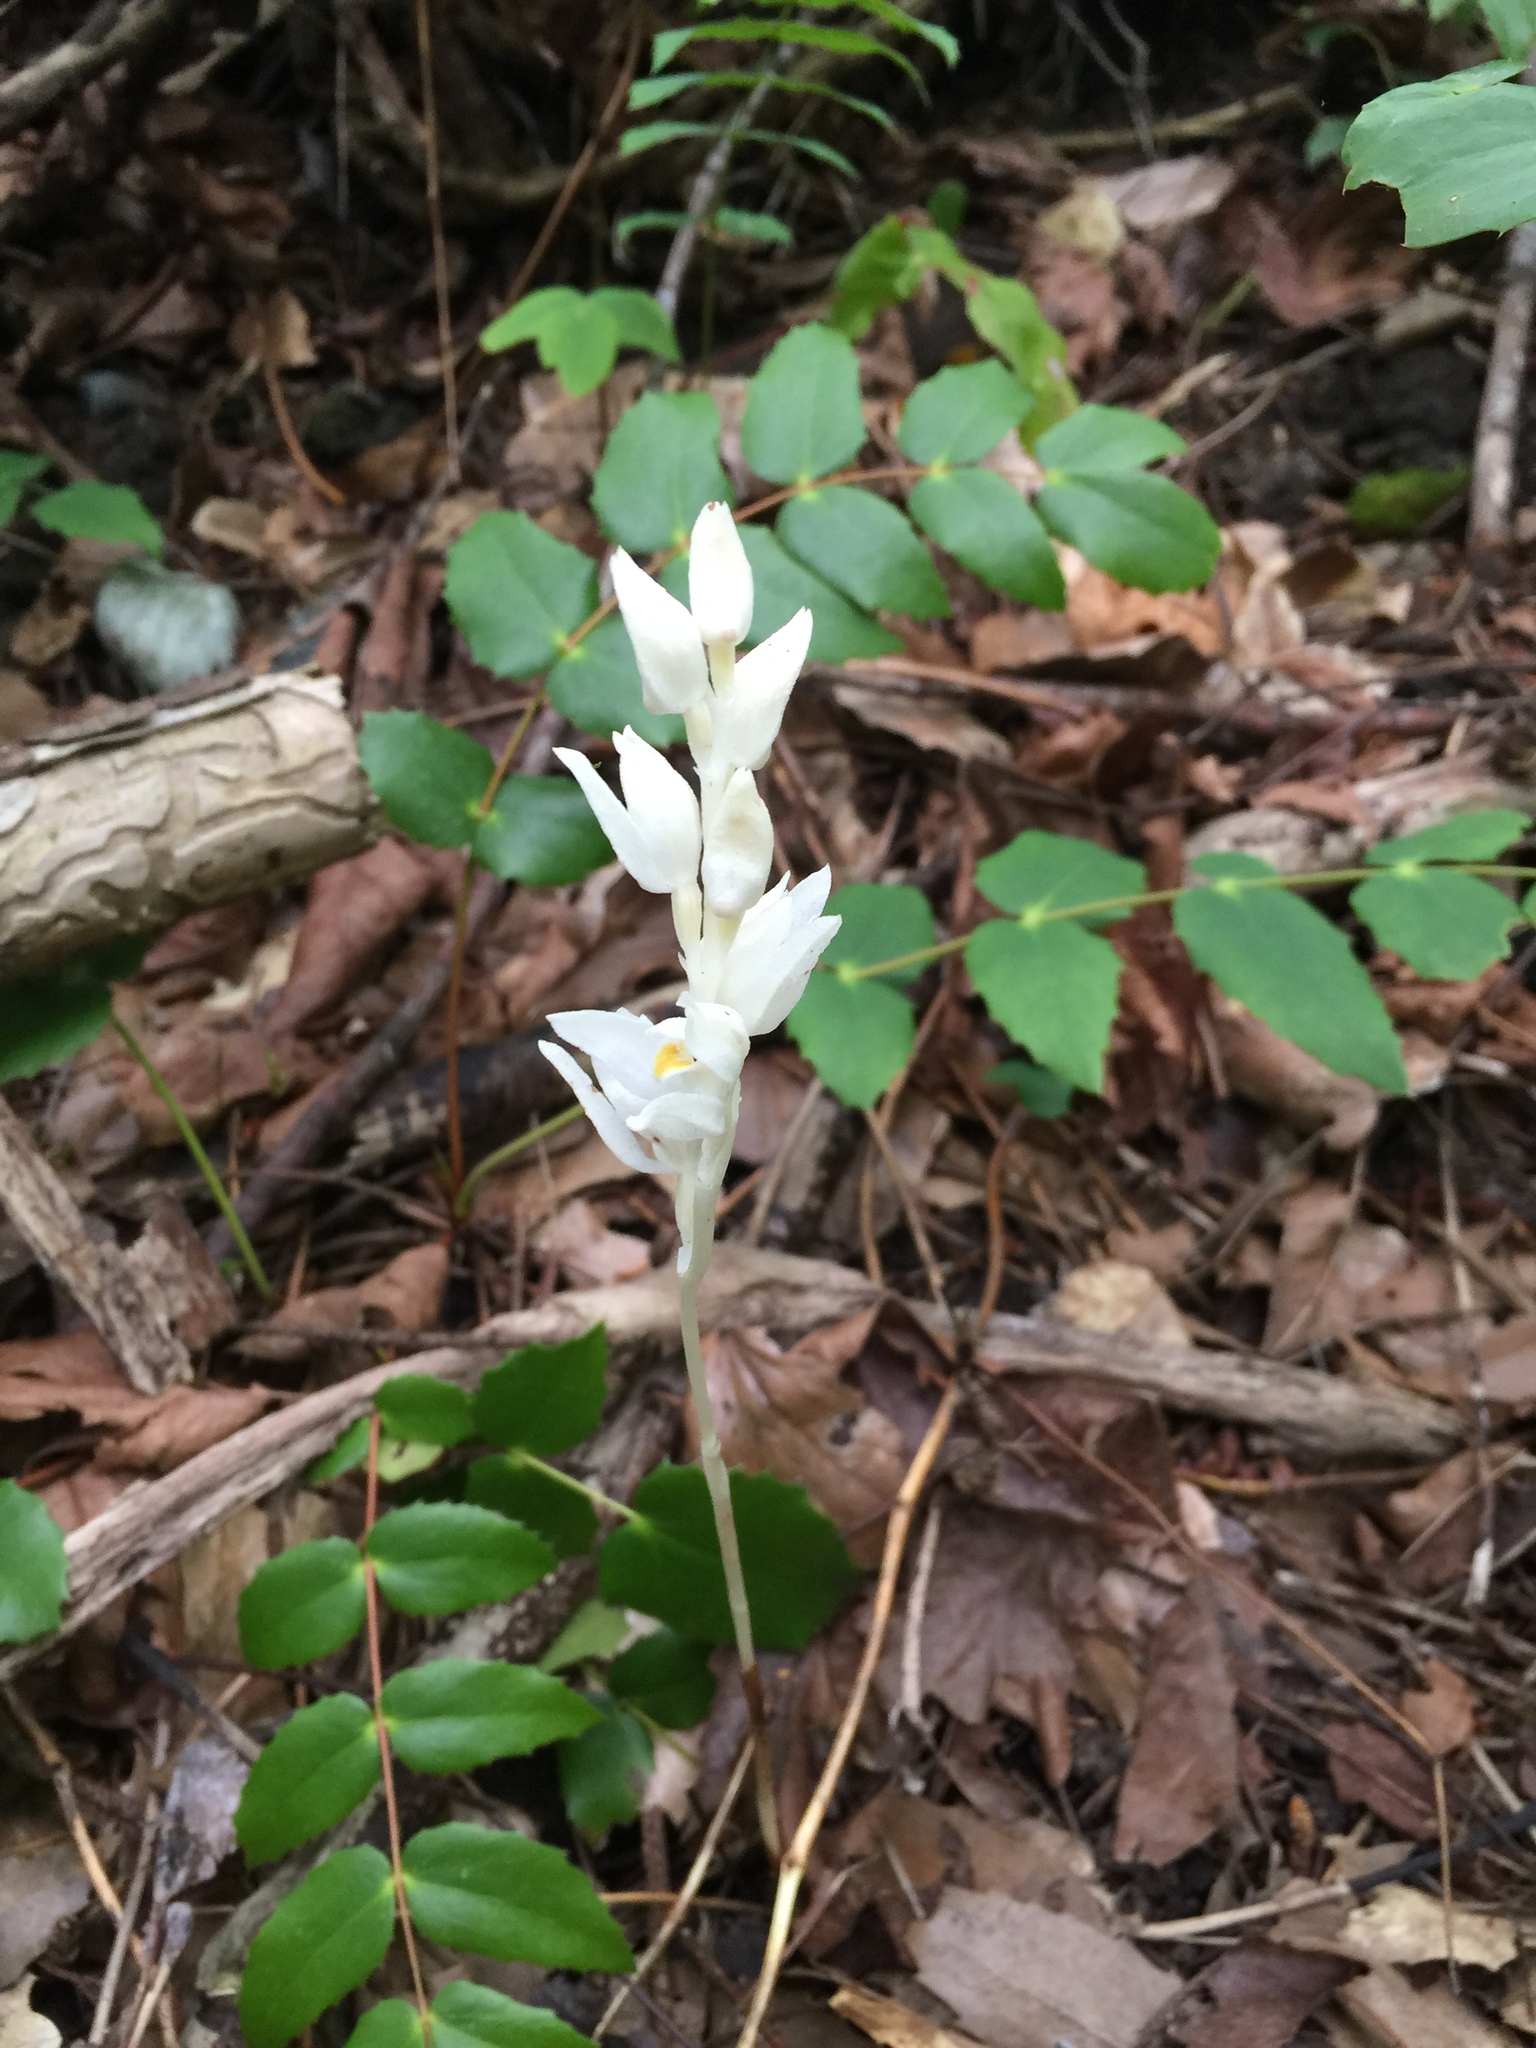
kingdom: Plantae
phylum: Tracheophyta
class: Liliopsida
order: Asparagales
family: Orchidaceae
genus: Cephalanthera
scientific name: Cephalanthera austiniae
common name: Phantom orchid
